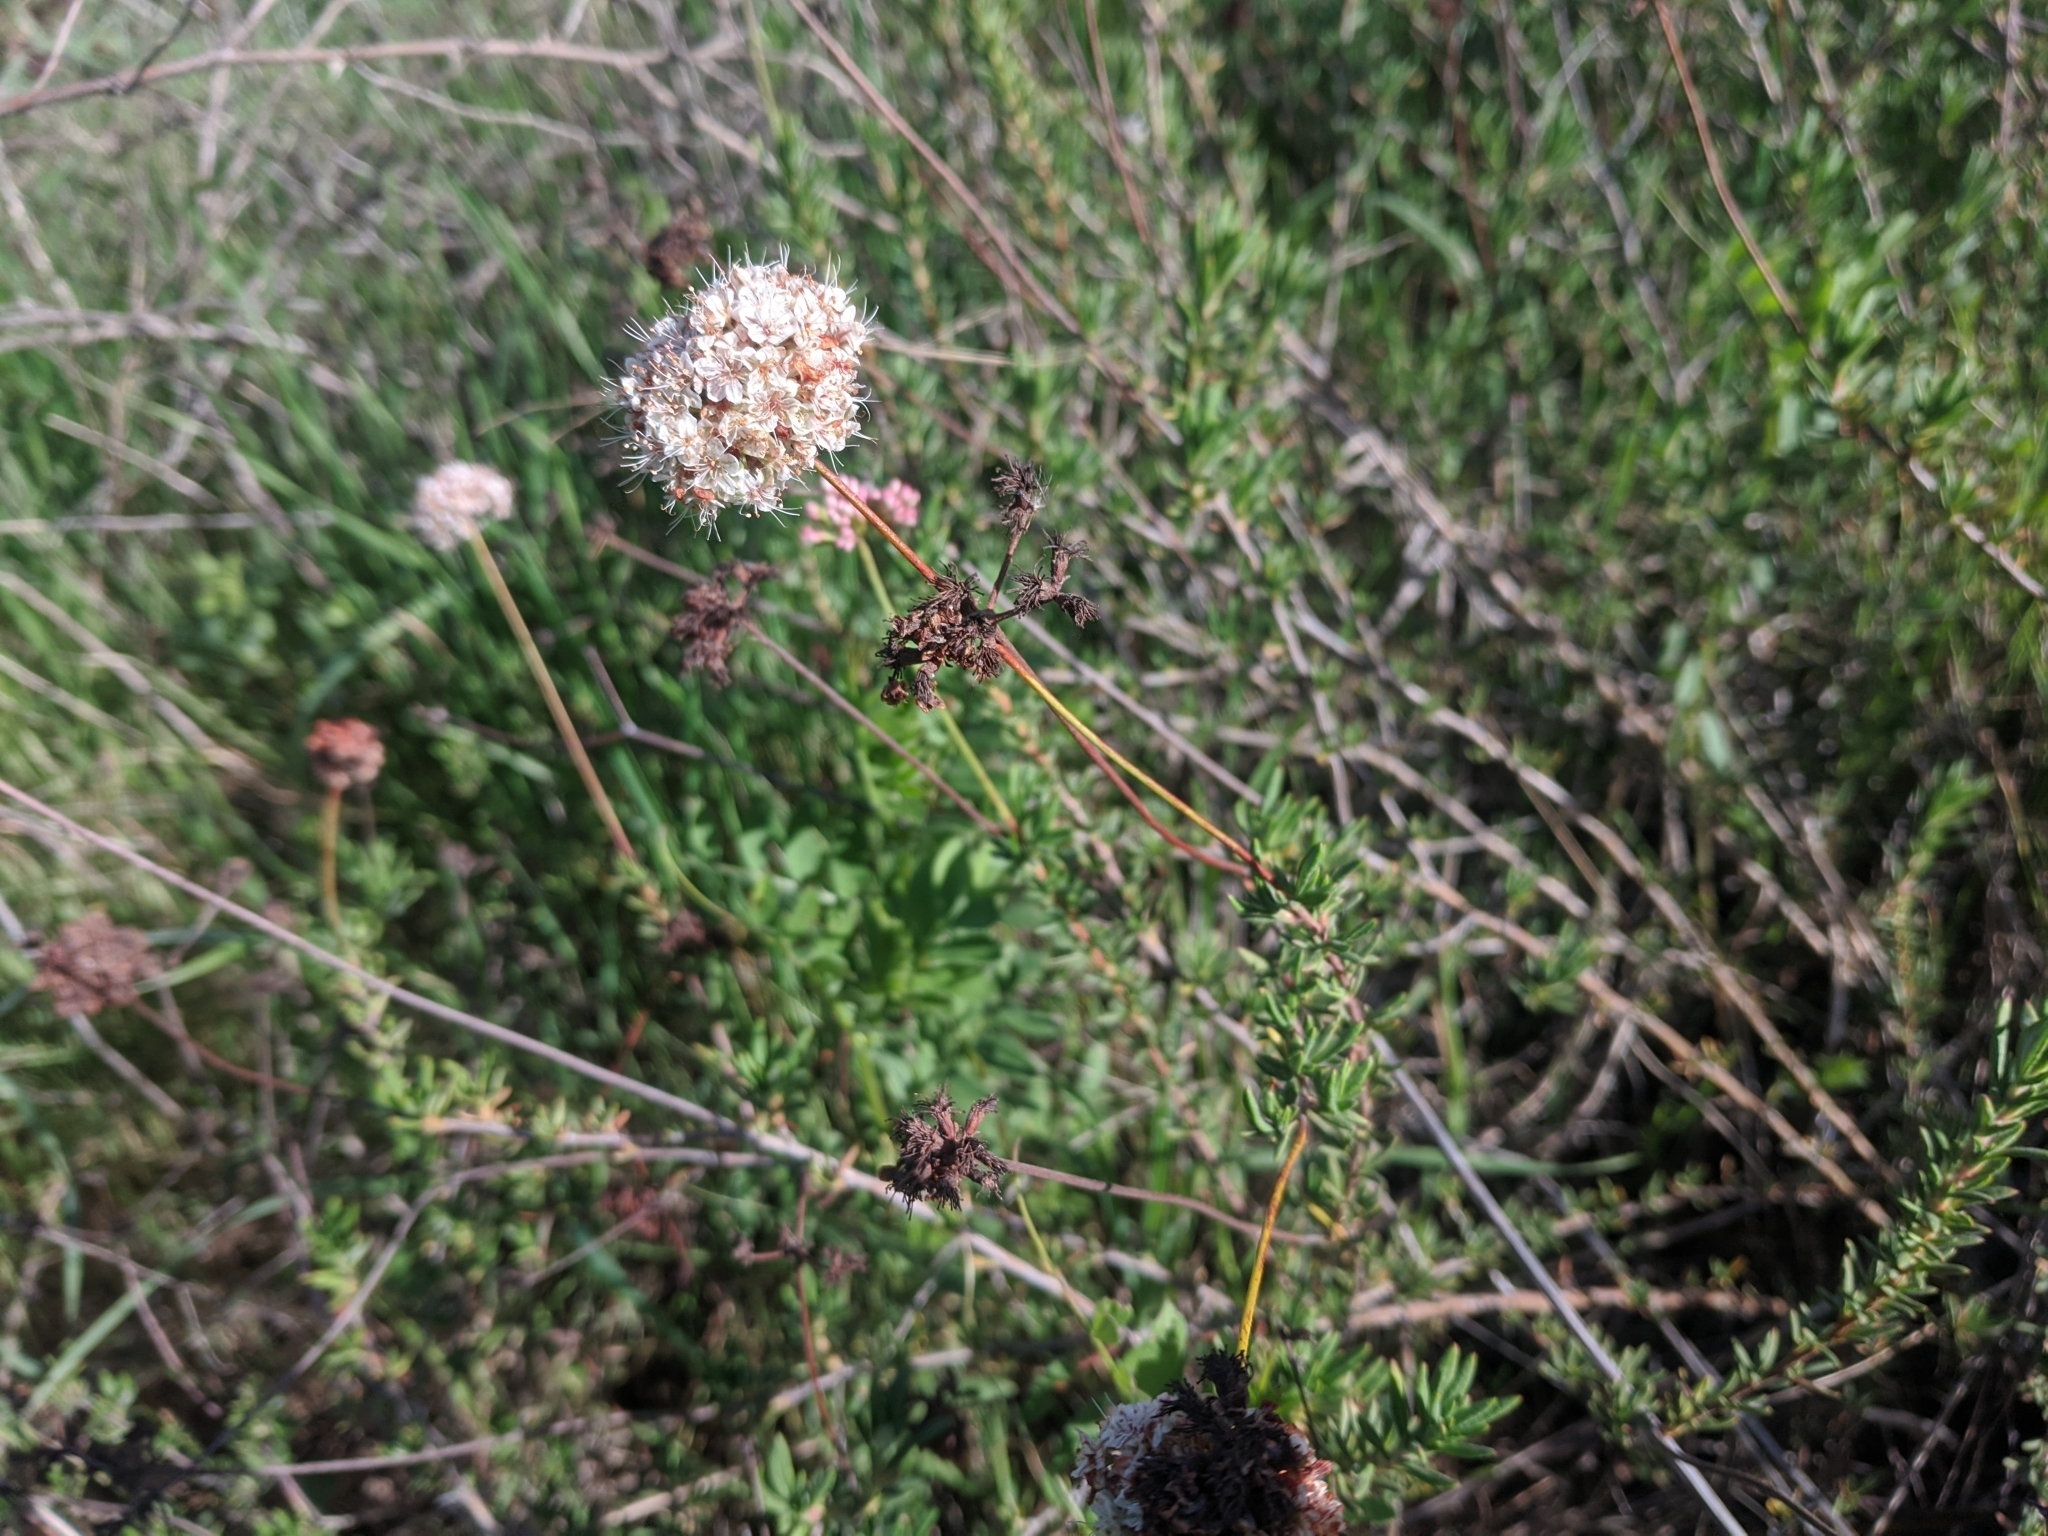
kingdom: Plantae
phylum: Tracheophyta
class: Magnoliopsida
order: Caryophyllales
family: Polygonaceae
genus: Eriogonum
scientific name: Eriogonum fasciculatum
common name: California wild buckwheat
